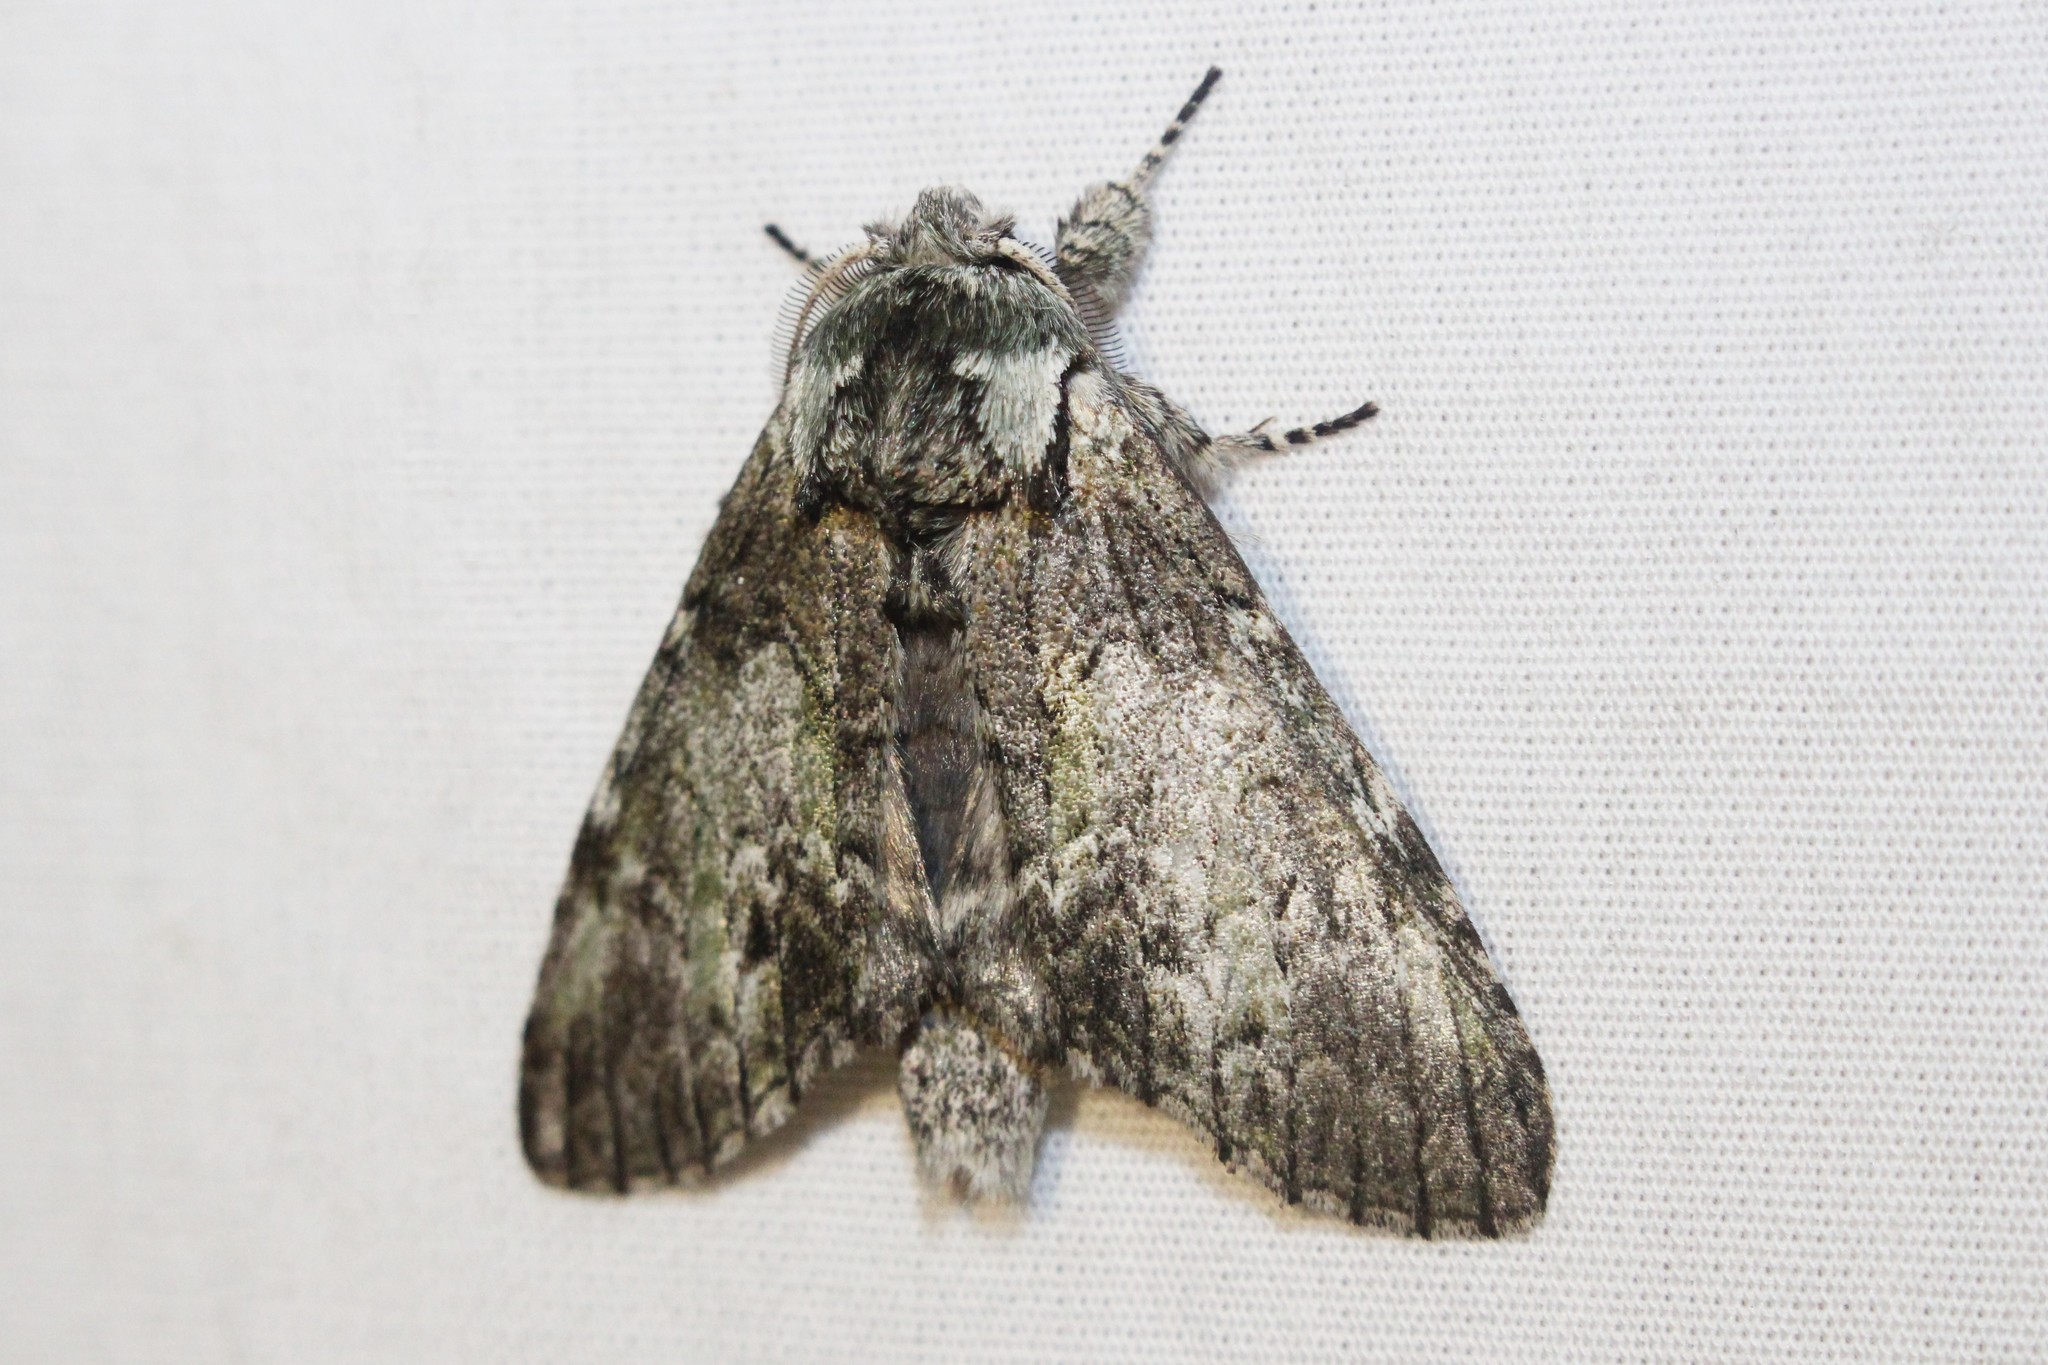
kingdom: Animalia
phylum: Arthropoda
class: Insecta
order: Lepidoptera
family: Notodontidae
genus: Macrurocampa
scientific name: Macrurocampa marthesia
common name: Mottled prominent
